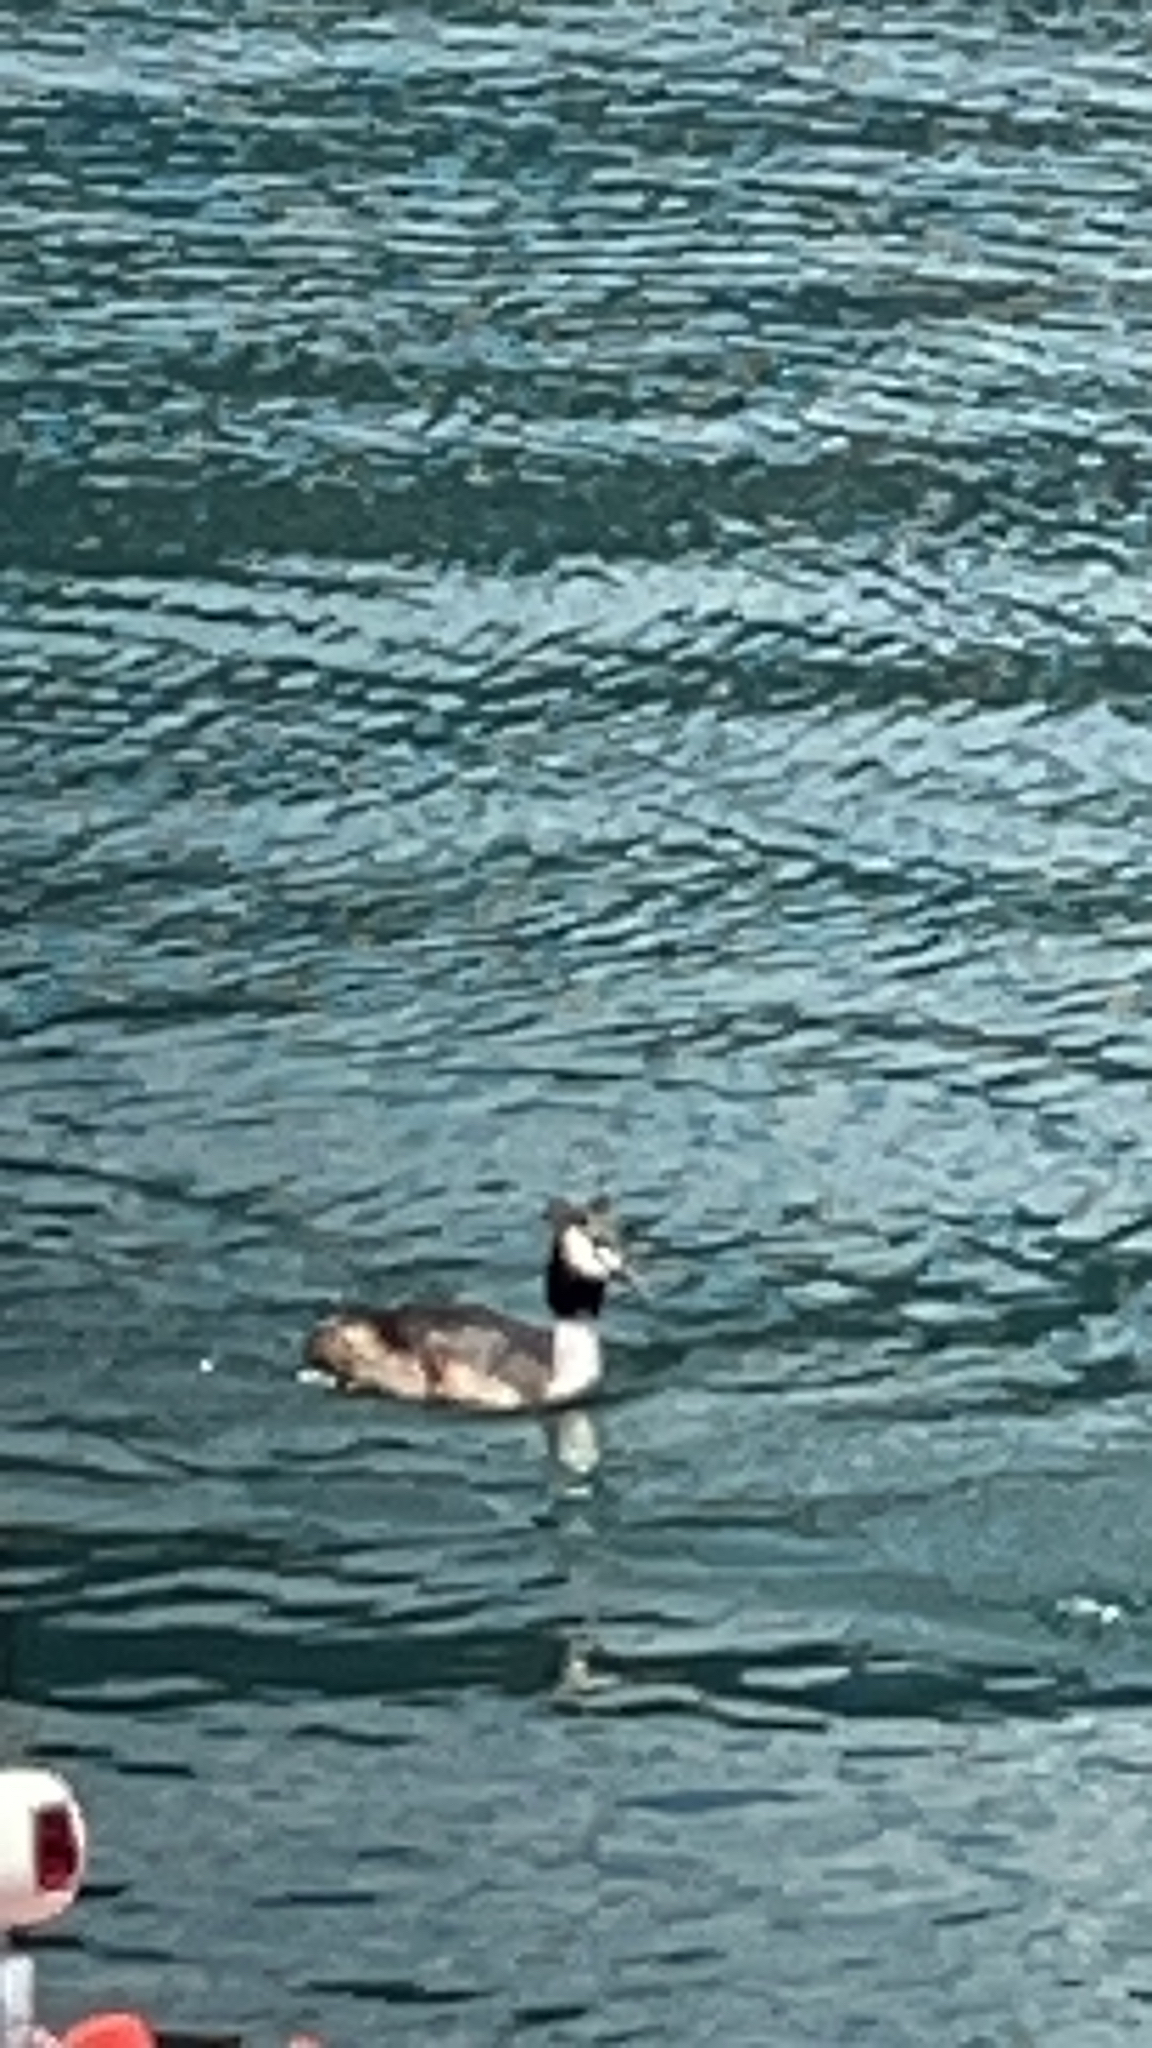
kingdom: Animalia
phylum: Chordata
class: Aves
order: Podicipediformes
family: Podicipedidae
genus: Podiceps
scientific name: Podiceps cristatus
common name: Great crested grebe
